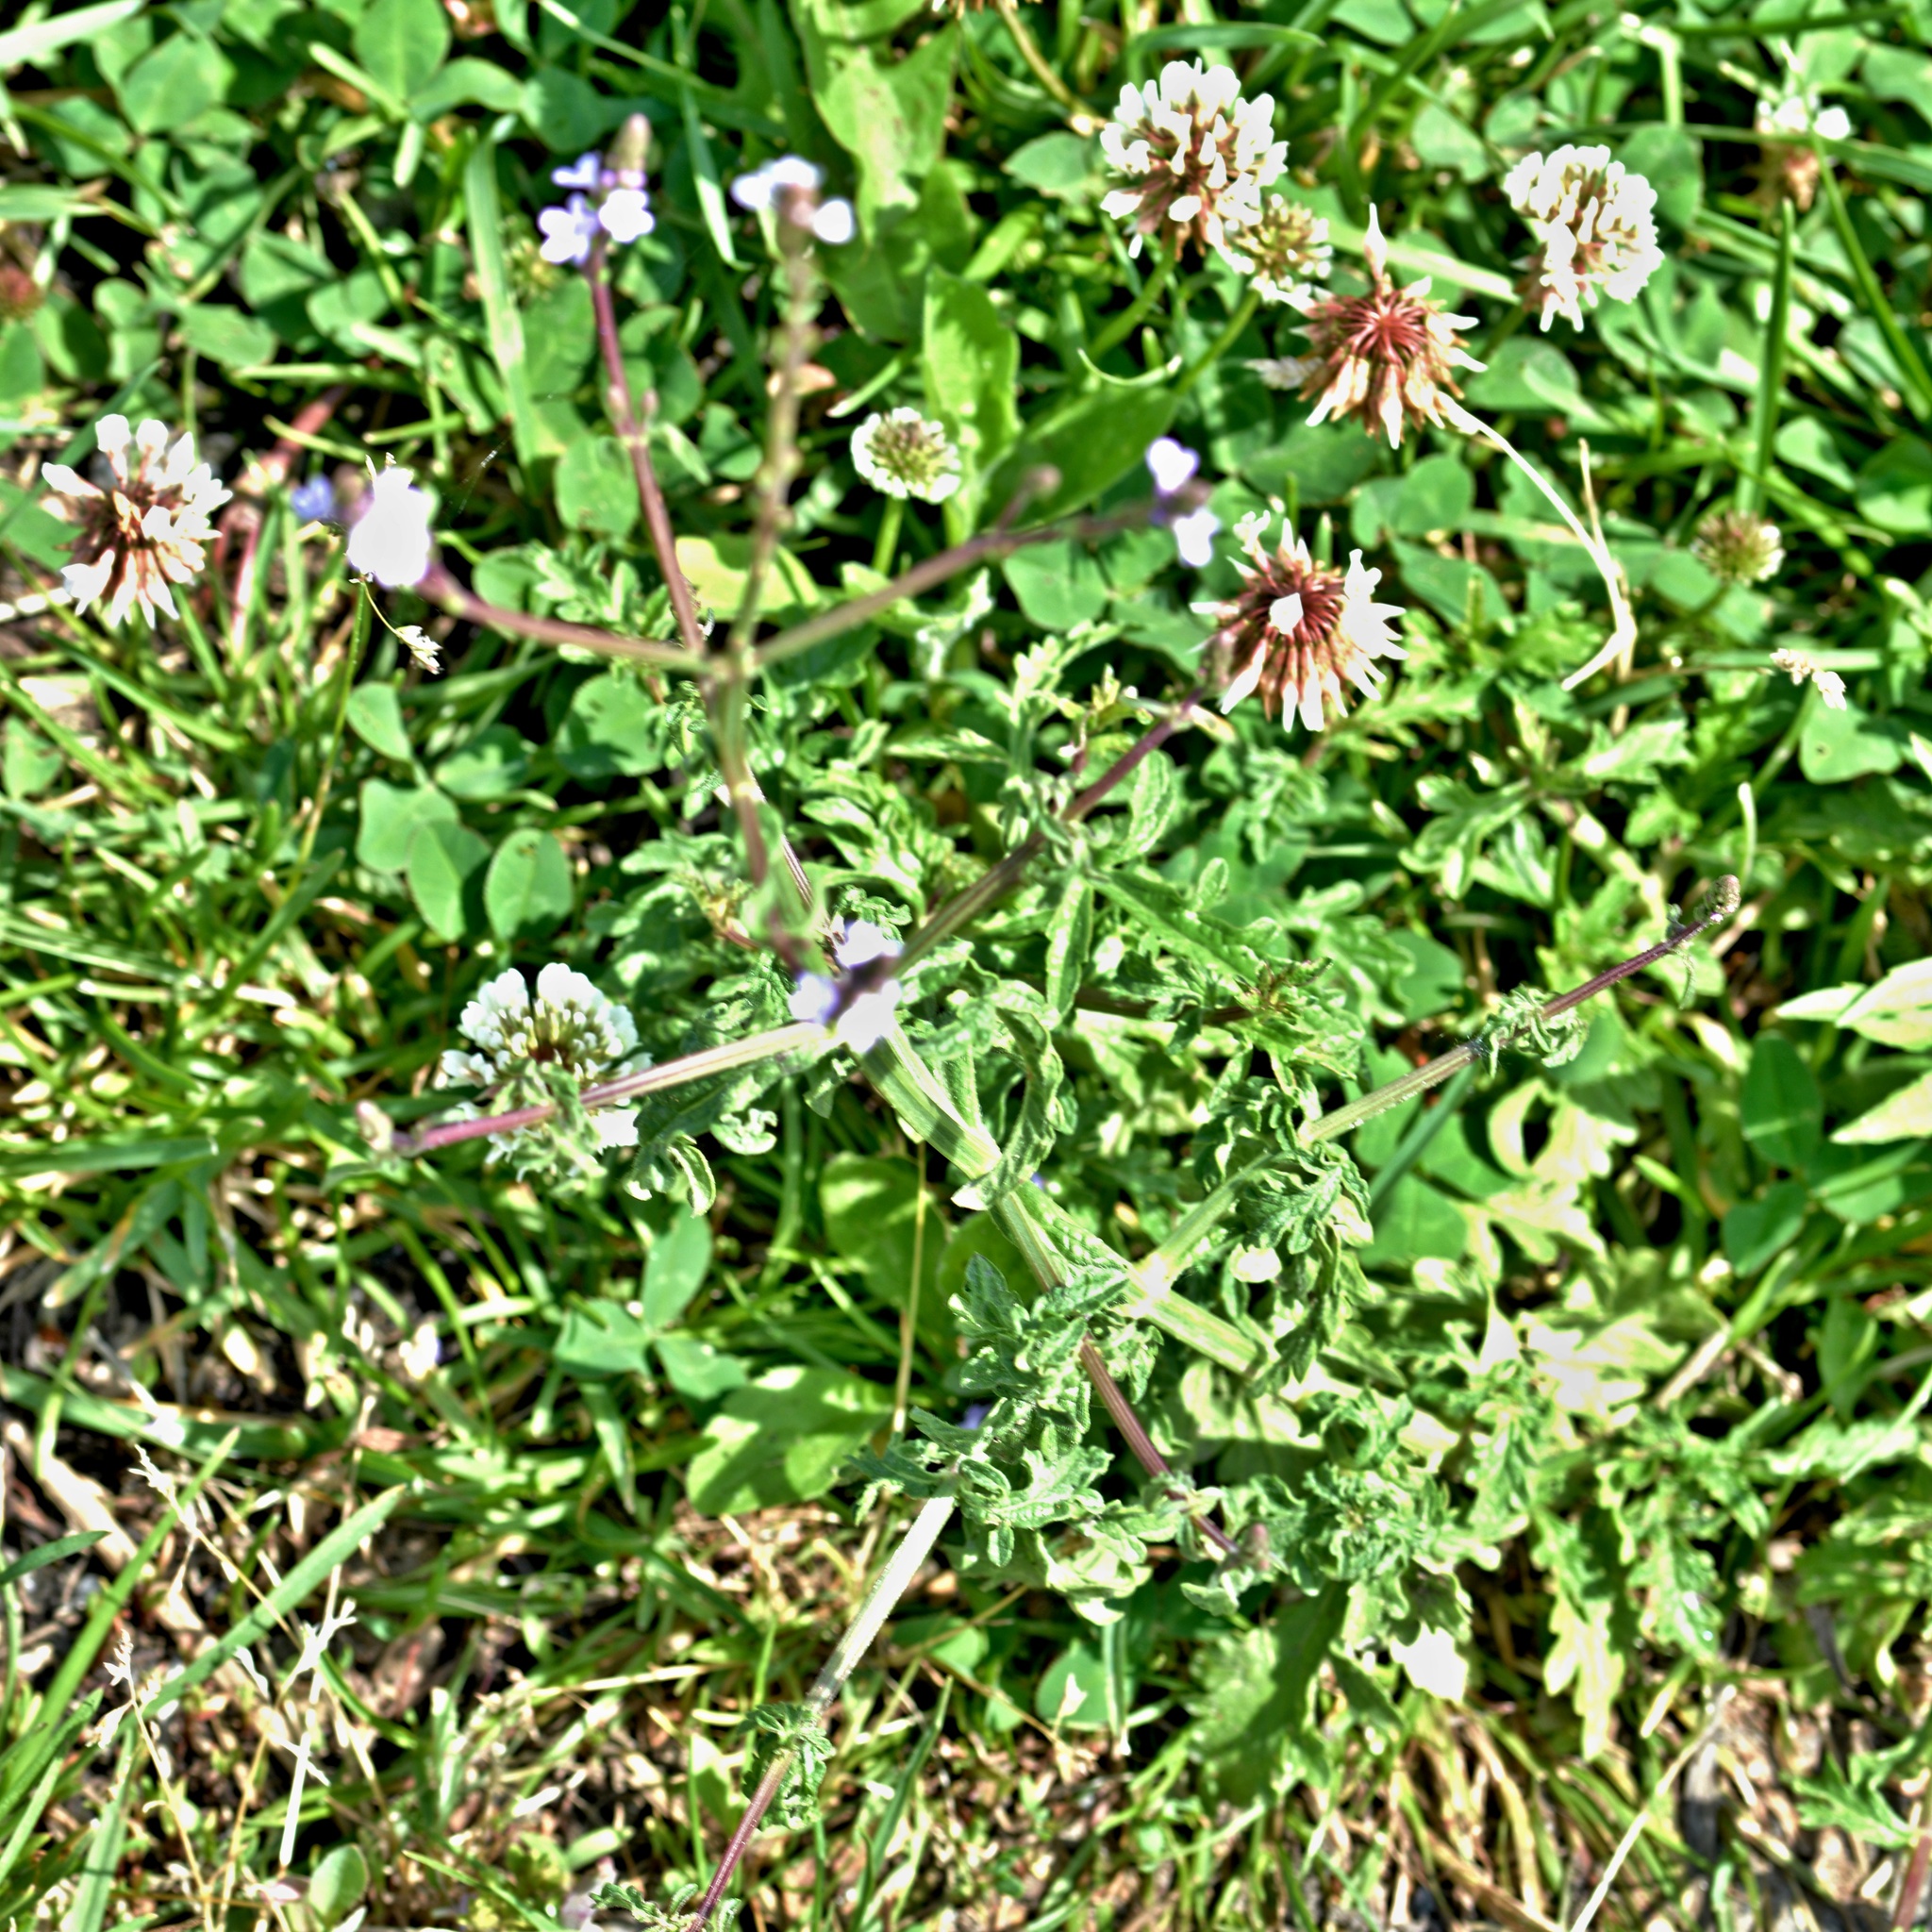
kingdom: Plantae
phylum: Tracheophyta
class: Magnoliopsida
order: Lamiales
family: Verbenaceae
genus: Verbena
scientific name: Verbena officinalis
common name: Vervain
